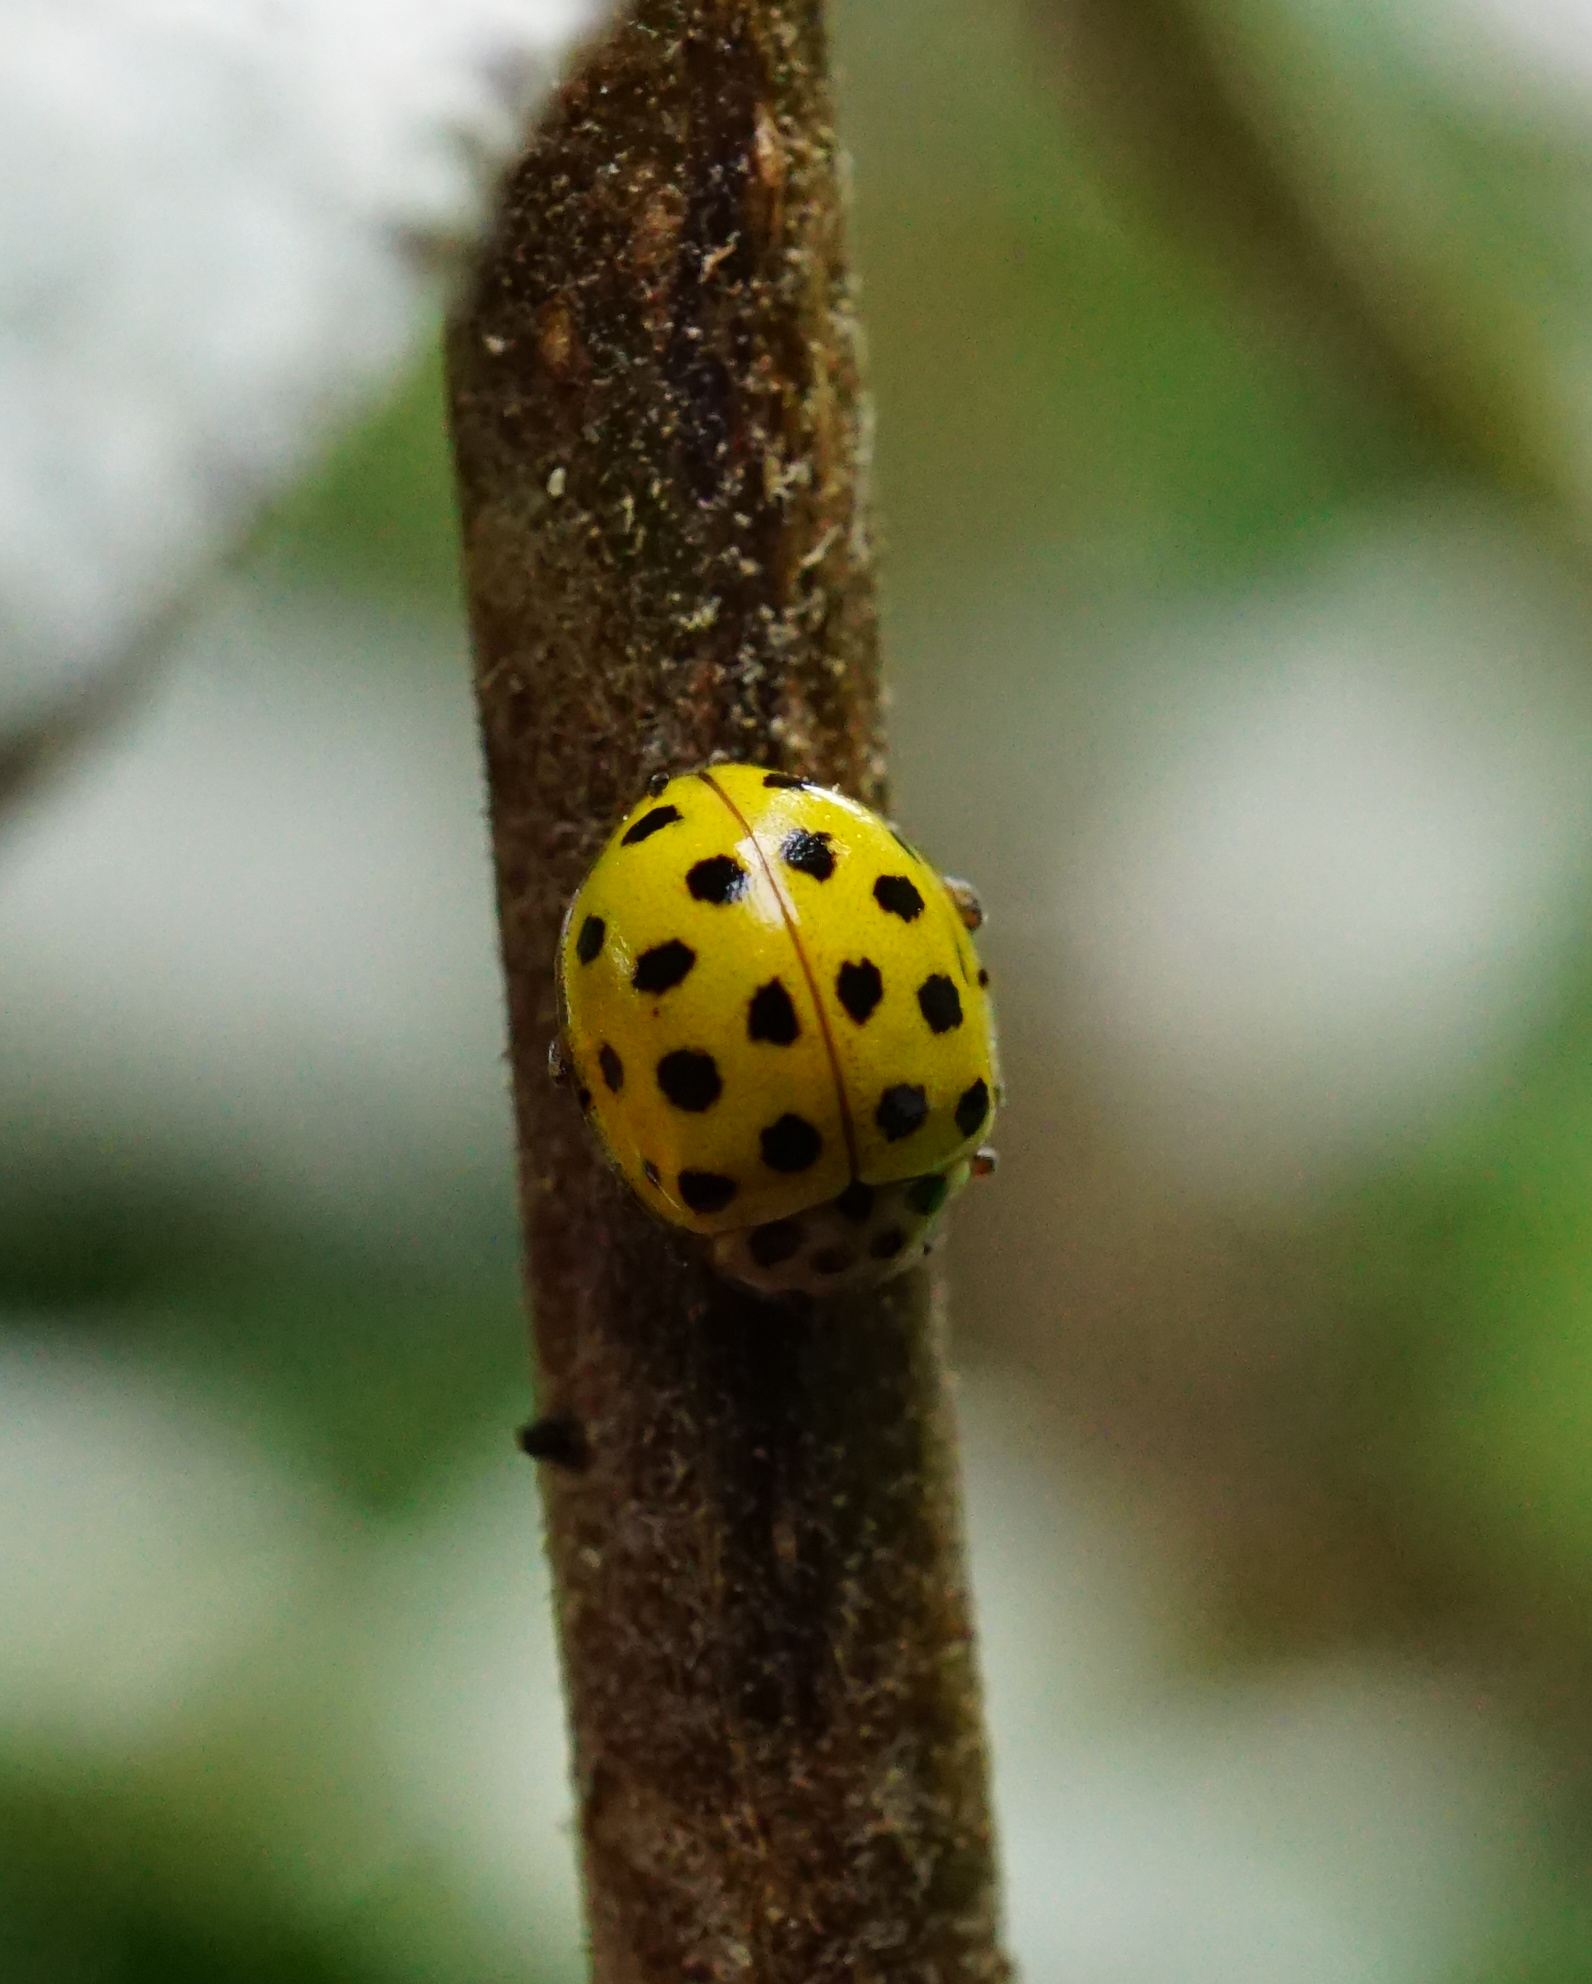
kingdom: Animalia
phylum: Arthropoda
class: Insecta
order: Coleoptera
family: Coccinellidae
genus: Psyllobora
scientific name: Psyllobora vigintiduopunctata
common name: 22-spot ladybird
